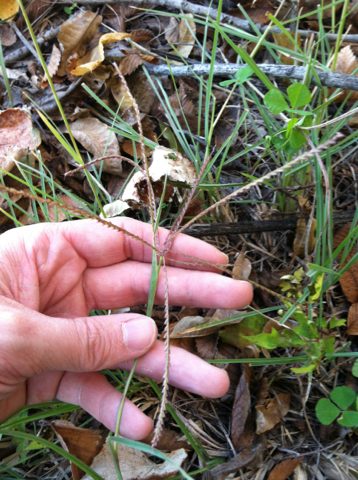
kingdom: Plantae
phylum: Tracheophyta
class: Liliopsida
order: Poales
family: Poaceae
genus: Chloris
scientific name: Chloris verticillata
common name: Tumble windmill grass
